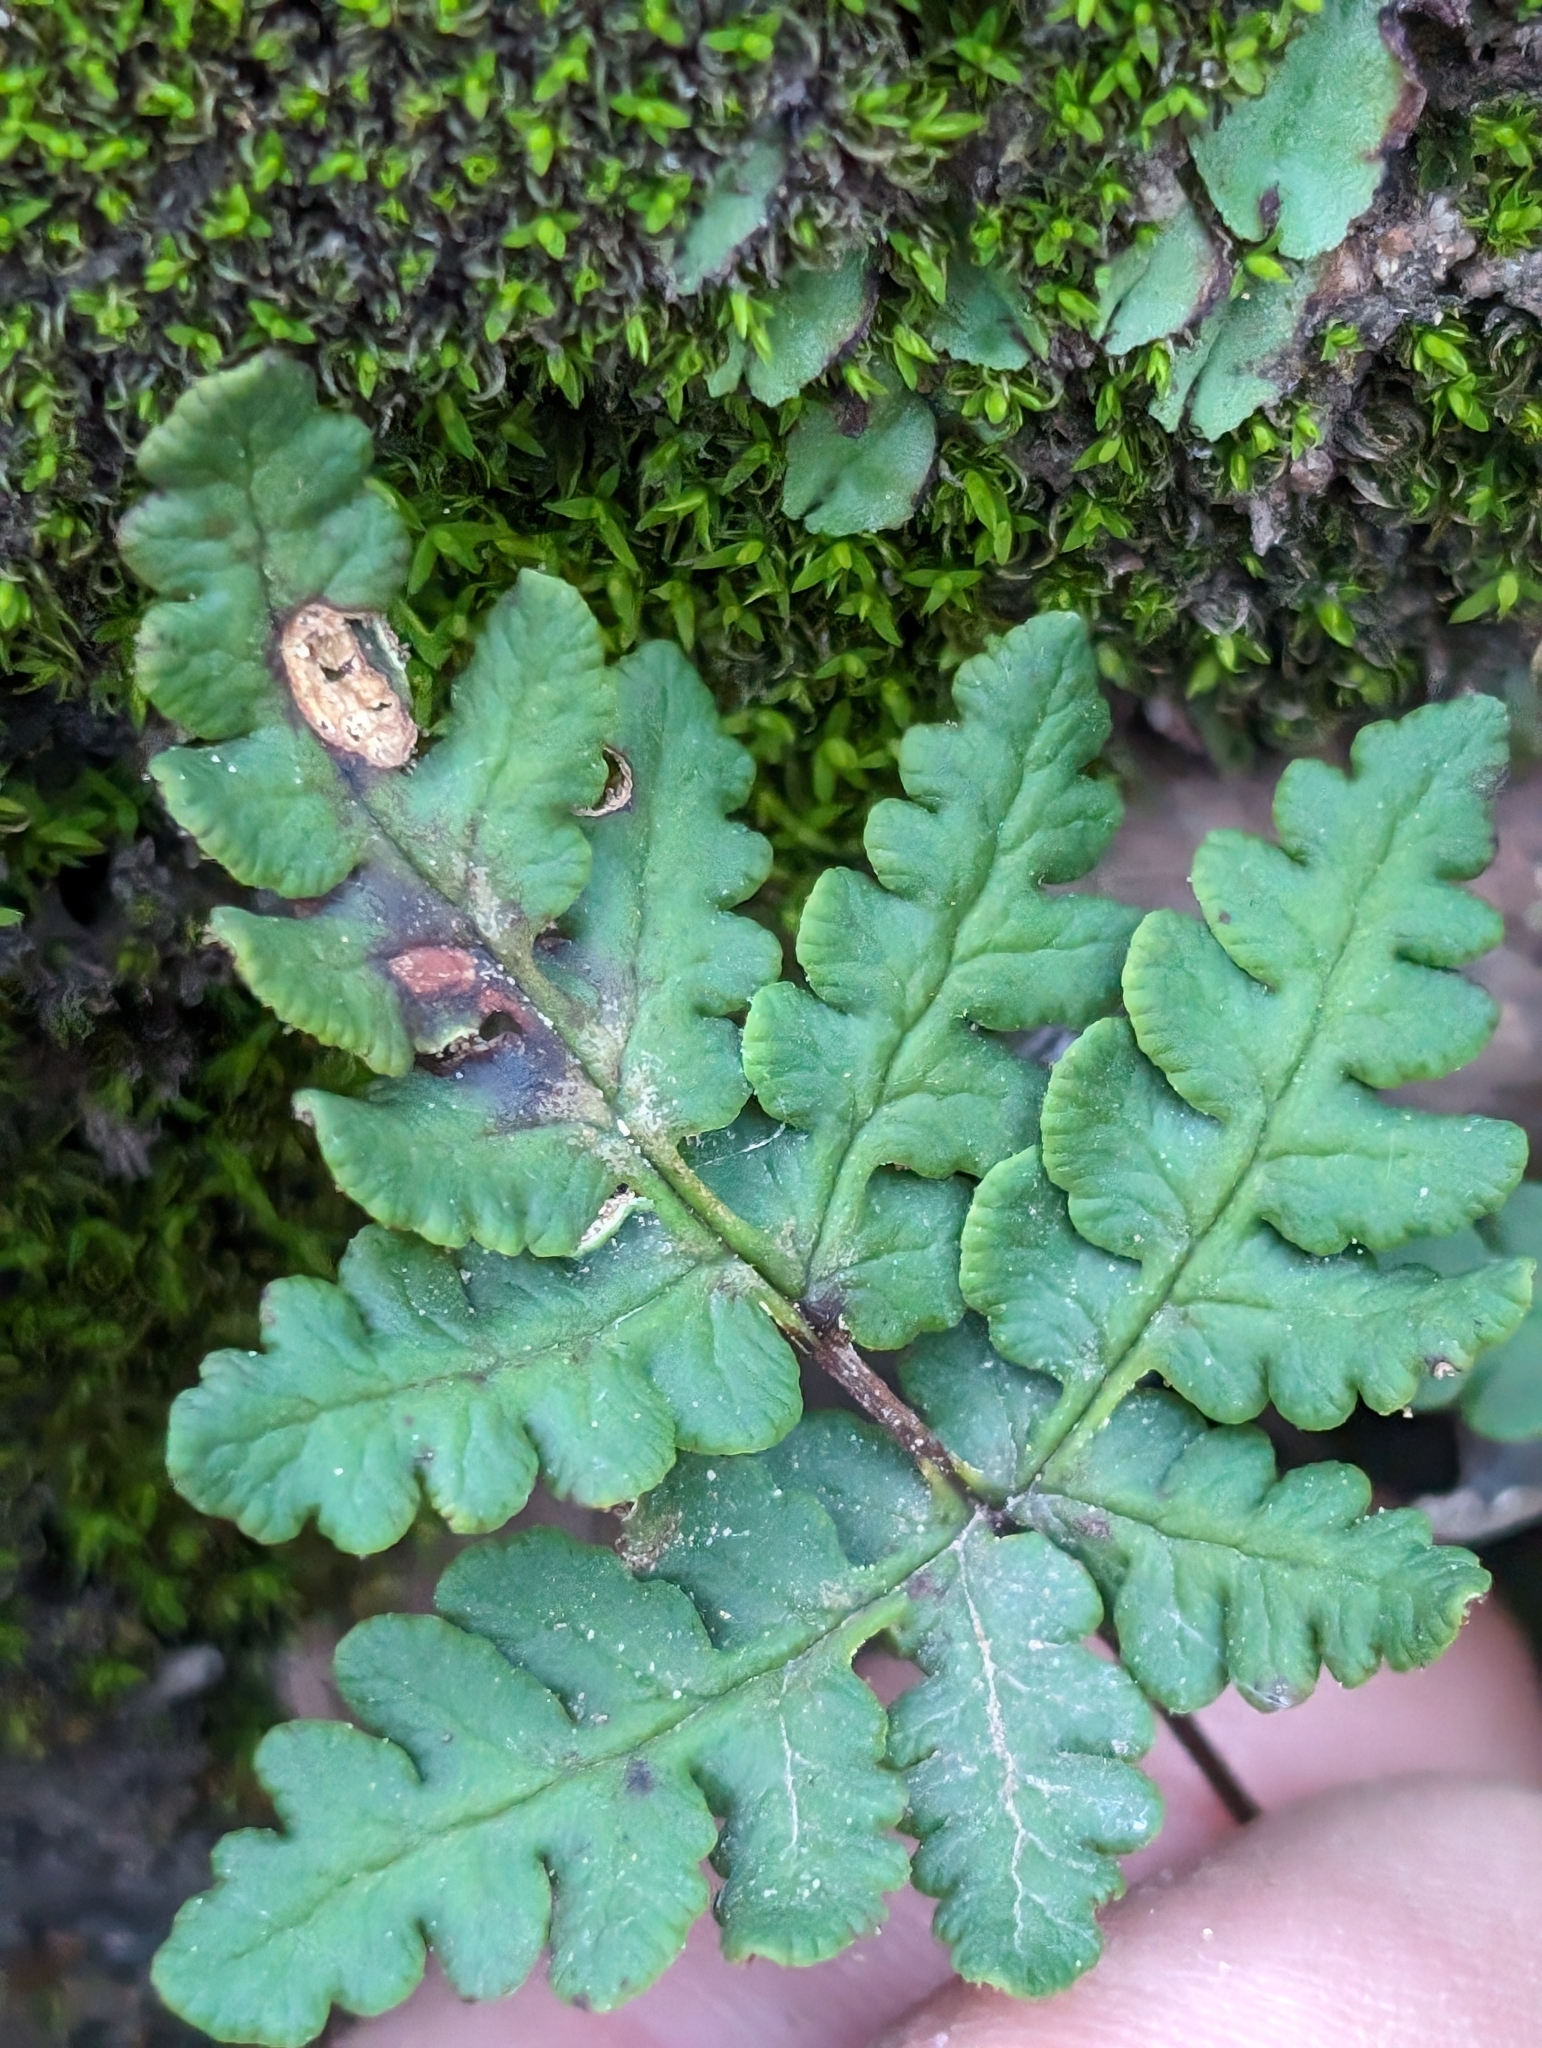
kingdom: Plantae
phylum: Tracheophyta
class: Polypodiopsida
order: Polypodiales
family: Pteridaceae
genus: Pentagramma
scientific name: Pentagramma triangularis
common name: Gold fern
